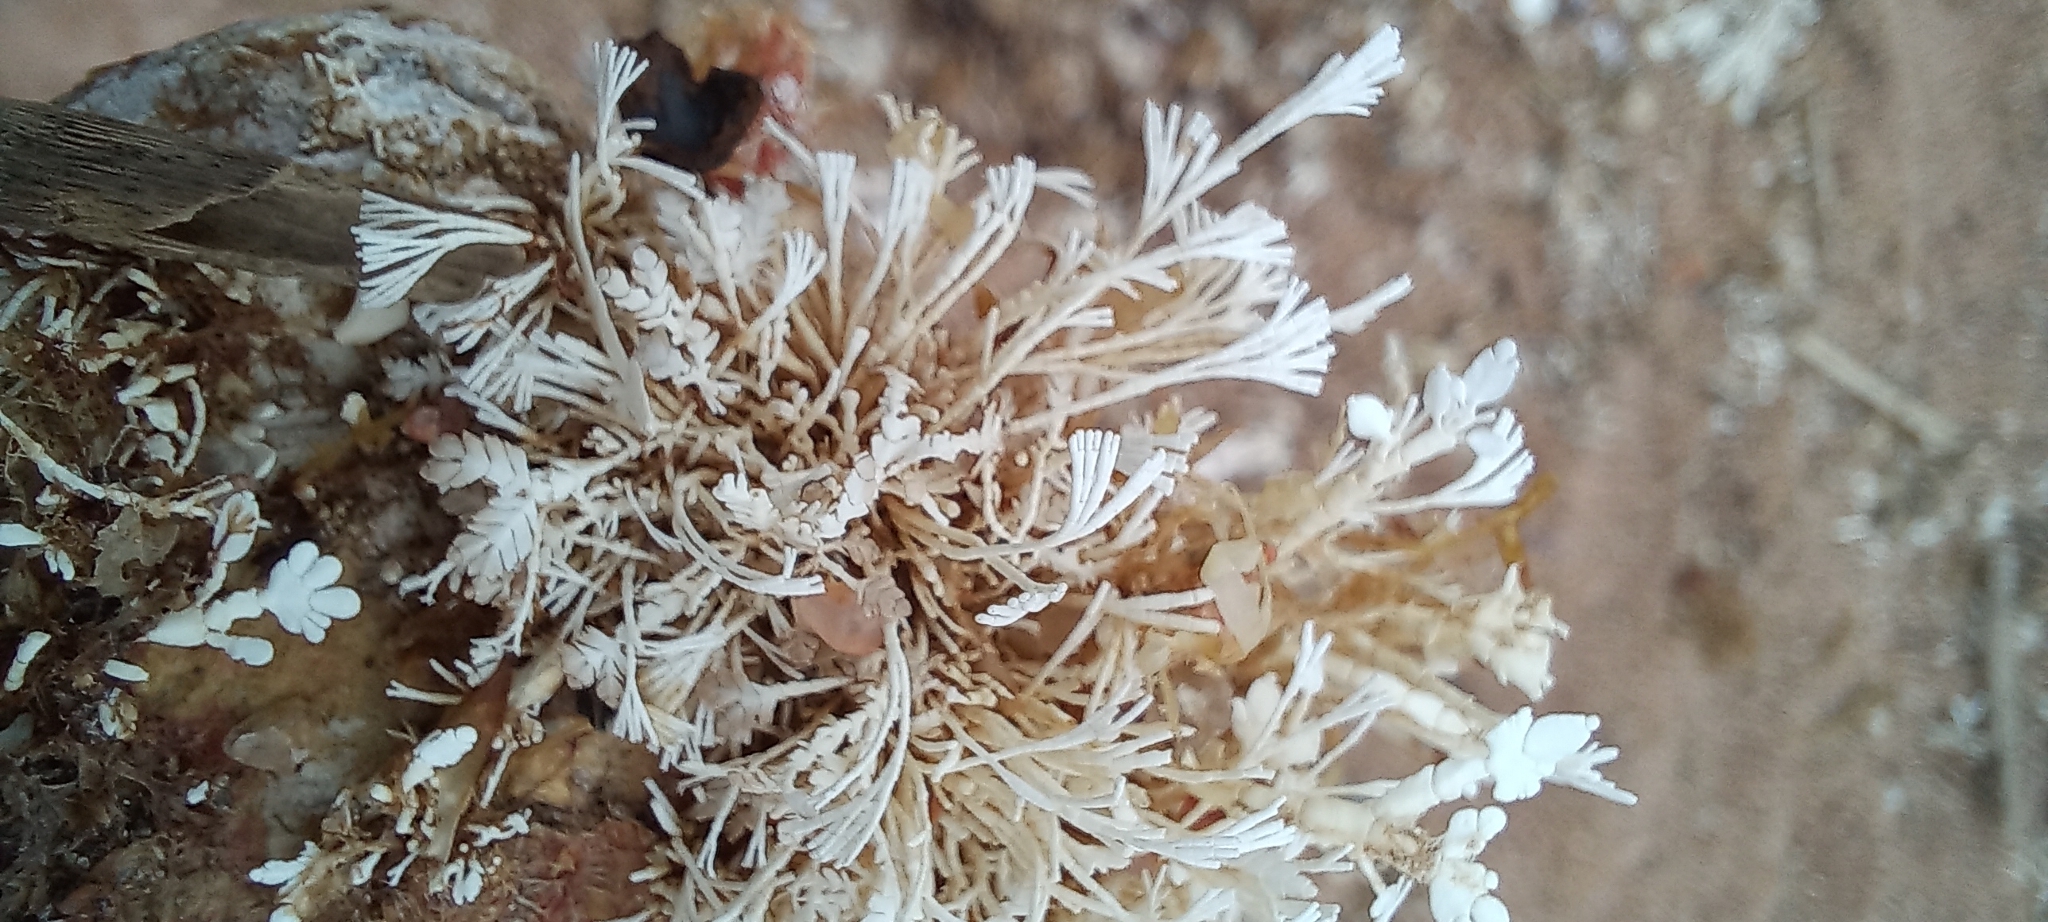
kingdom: Plantae
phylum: Rhodophyta
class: Florideophyceae
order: Corallinales
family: Corallinaceae
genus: Jania
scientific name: Jania capillacea
